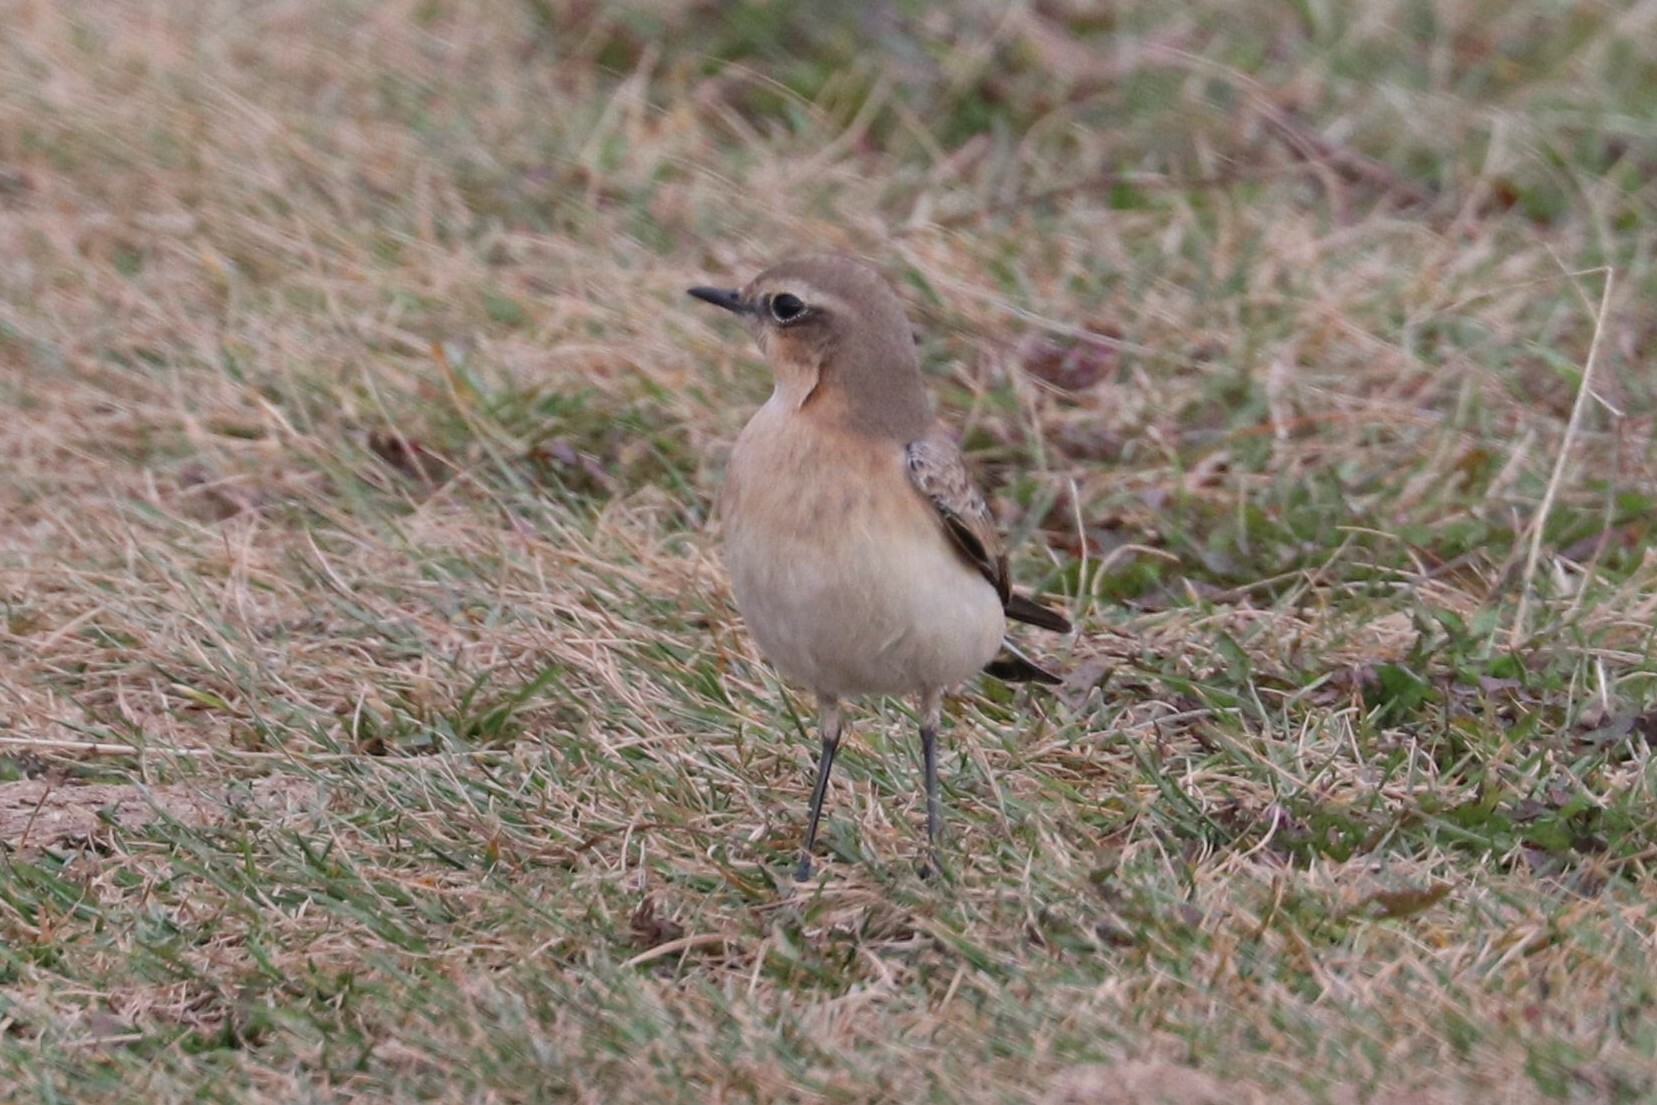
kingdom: Animalia
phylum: Chordata
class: Aves
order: Passeriformes
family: Muscicapidae
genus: Oenanthe
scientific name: Oenanthe oenanthe
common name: Northern wheatear
